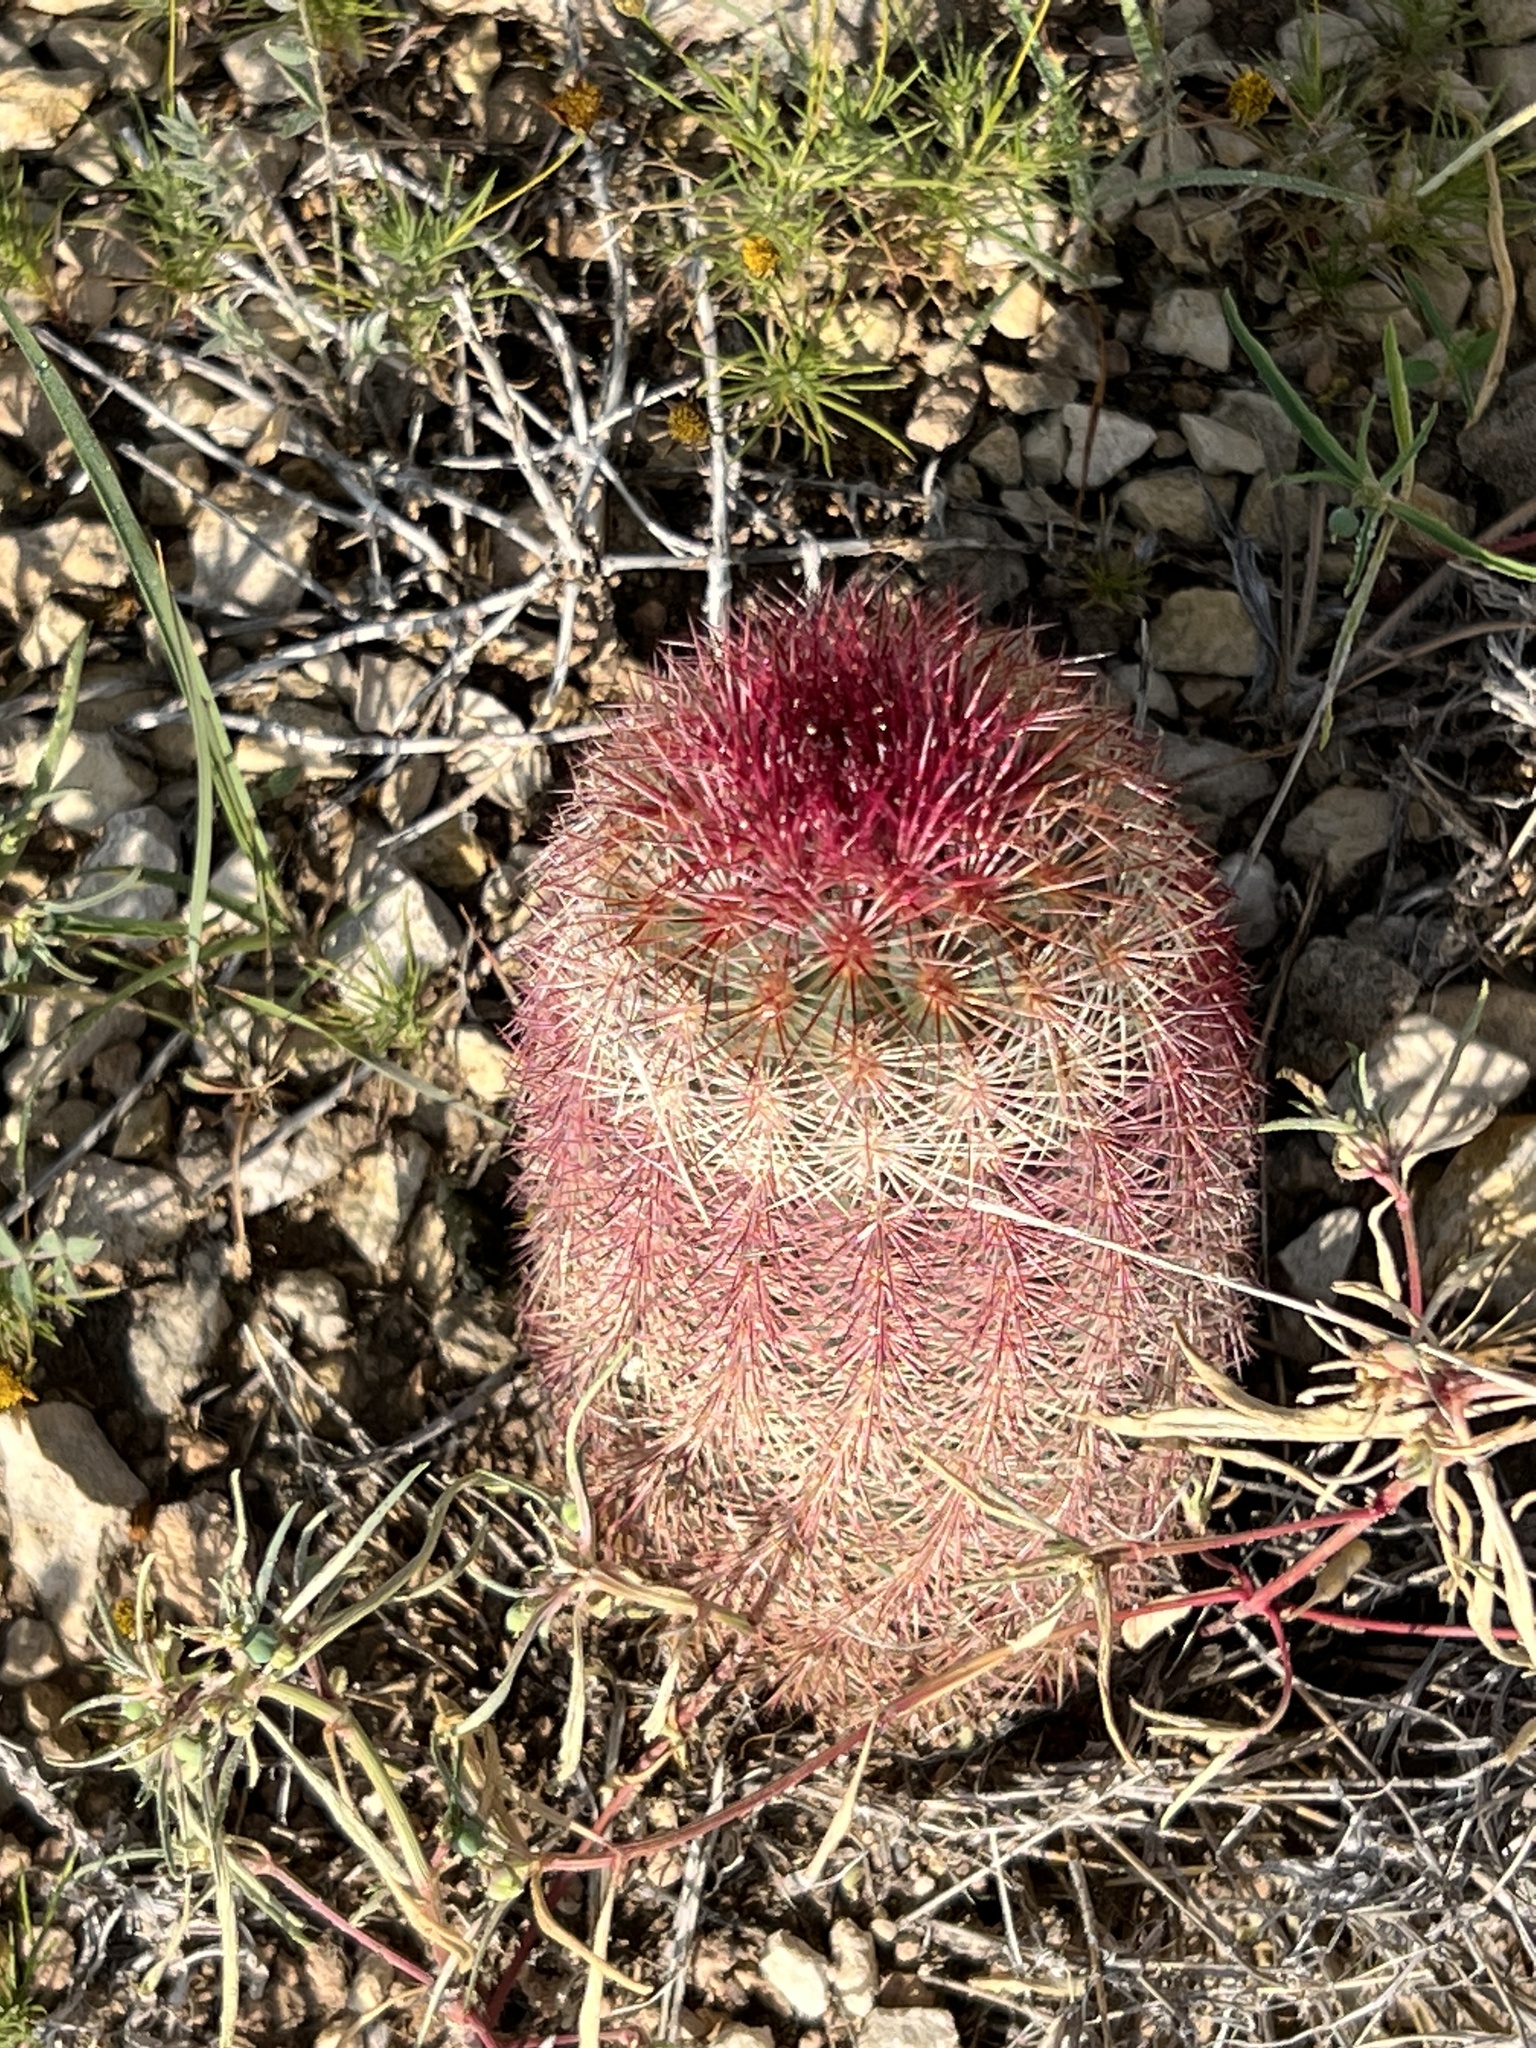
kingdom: Plantae
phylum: Tracheophyta
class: Magnoliopsida
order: Caryophyllales
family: Cactaceae
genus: Echinocereus
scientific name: Echinocereus dasyacanthus
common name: Spiny hedgehog cactus
